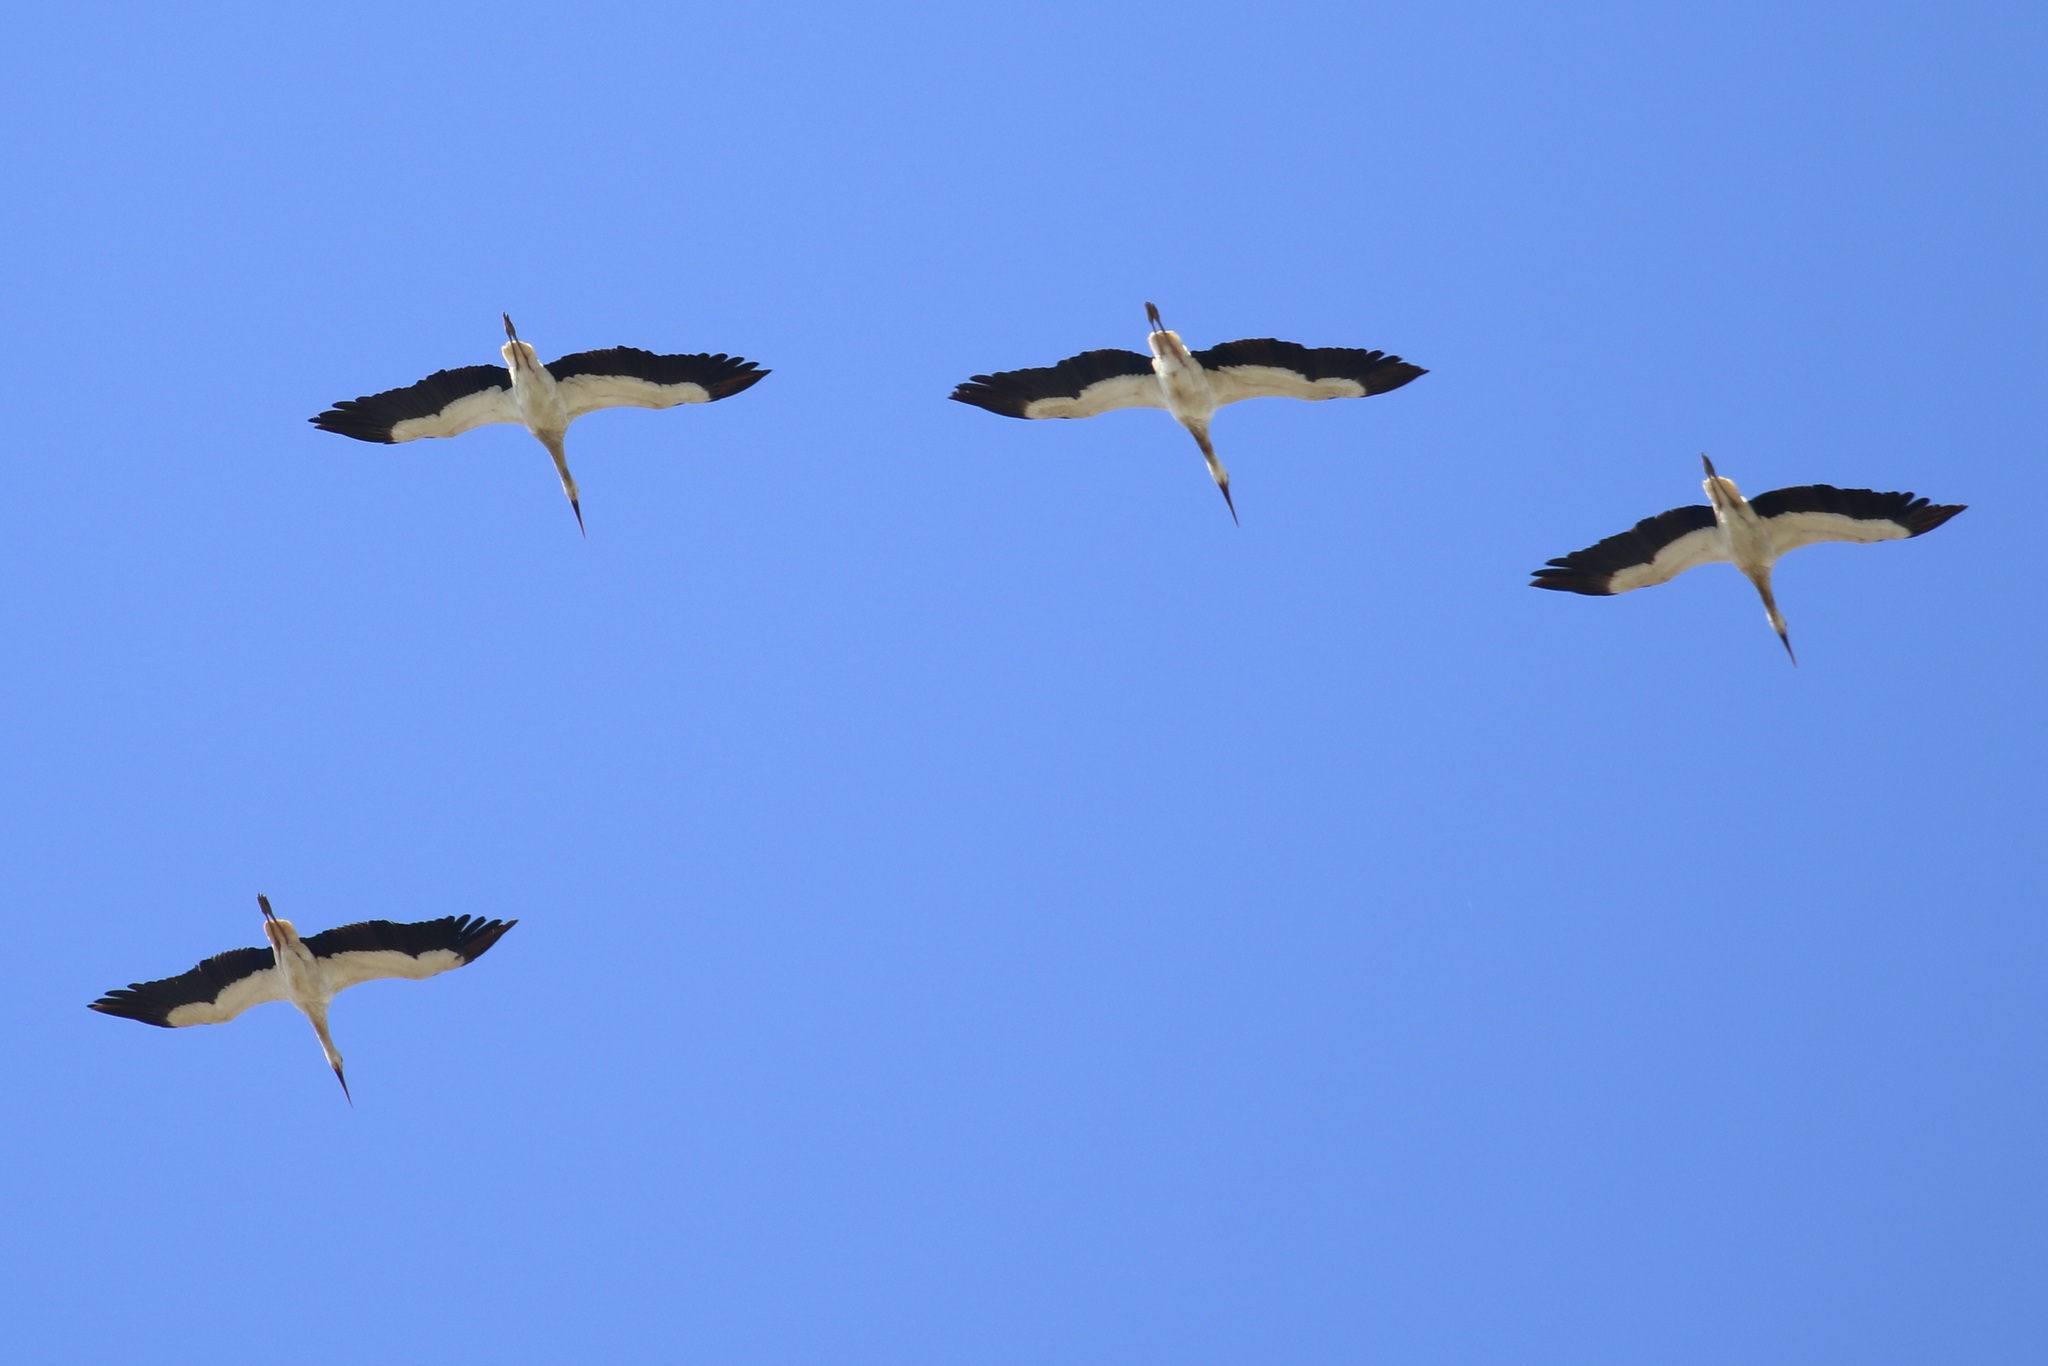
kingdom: Animalia
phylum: Chordata
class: Aves
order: Ciconiiformes
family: Ciconiidae
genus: Ciconia
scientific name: Ciconia ciconia
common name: White stork
